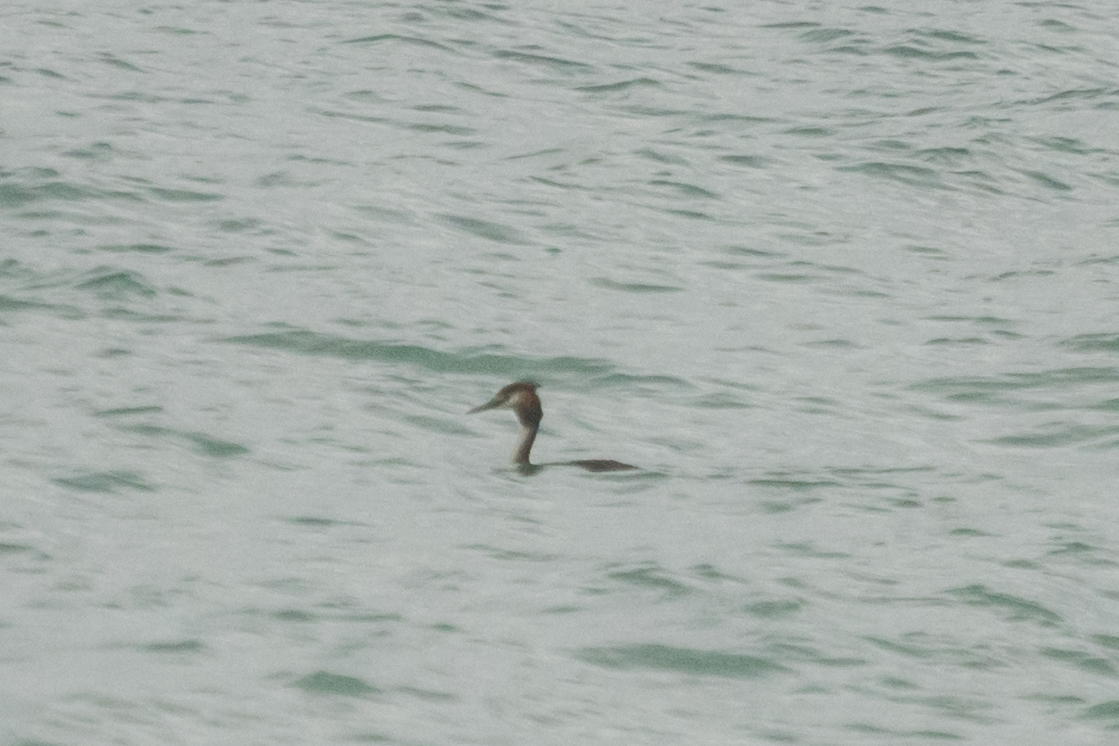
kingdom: Animalia
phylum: Chordata
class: Aves
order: Podicipediformes
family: Podicipedidae
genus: Podiceps
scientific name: Podiceps cristatus
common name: Great crested grebe
